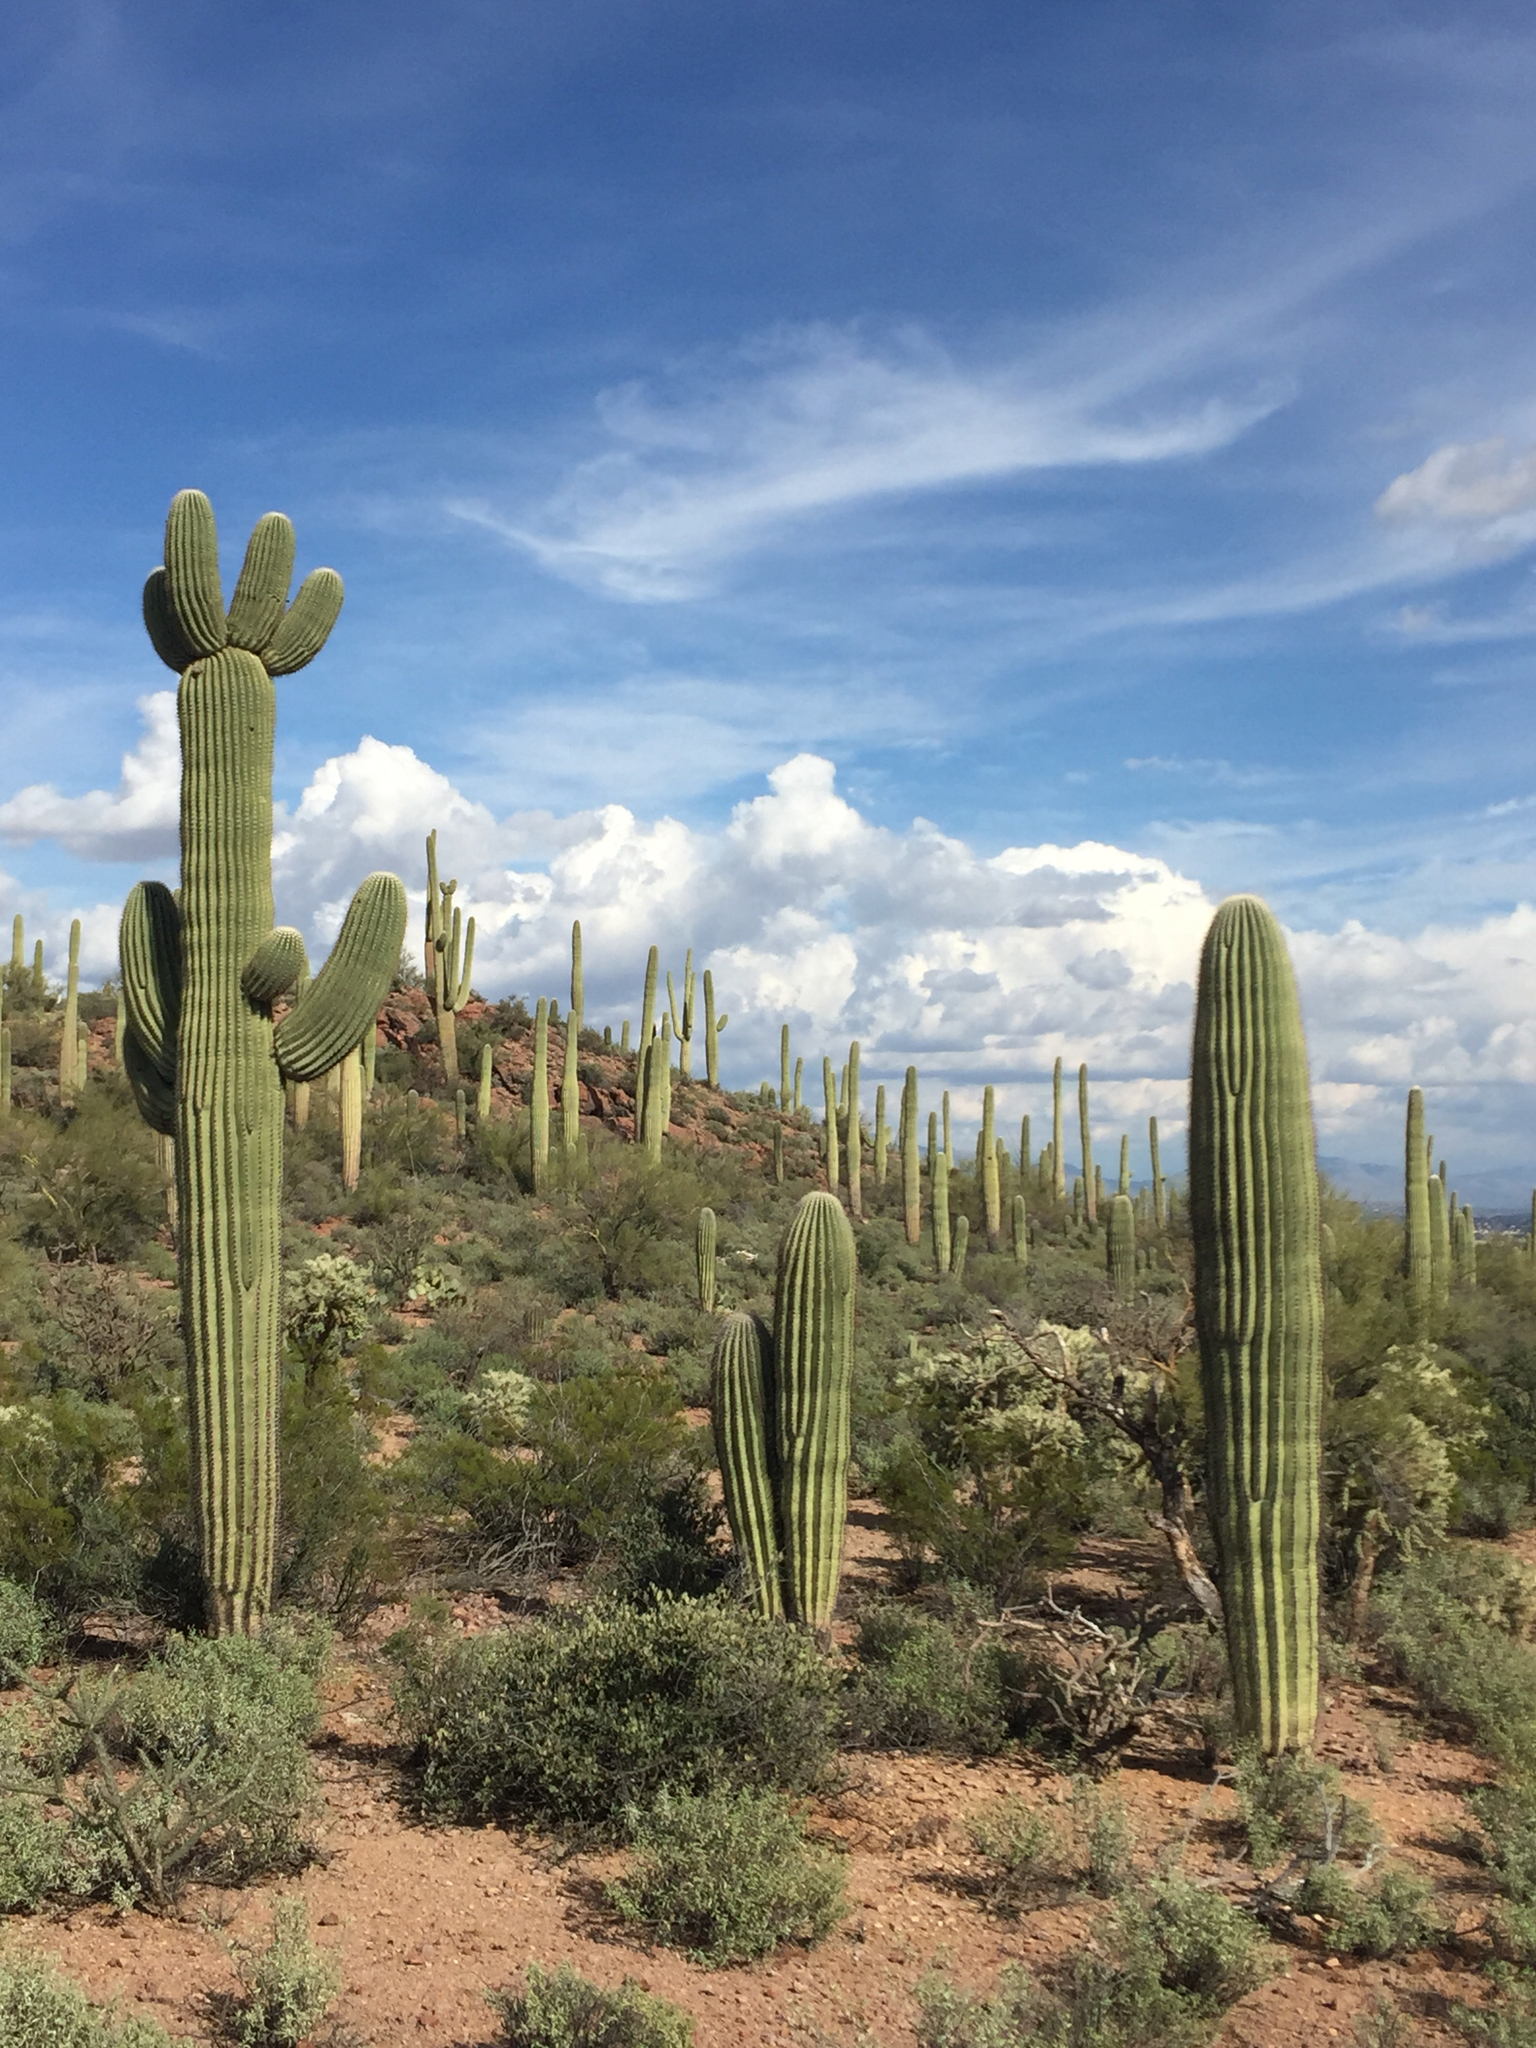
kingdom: Plantae
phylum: Tracheophyta
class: Magnoliopsida
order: Caryophyllales
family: Cactaceae
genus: Carnegiea
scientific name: Carnegiea gigantea
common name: Saguaro
